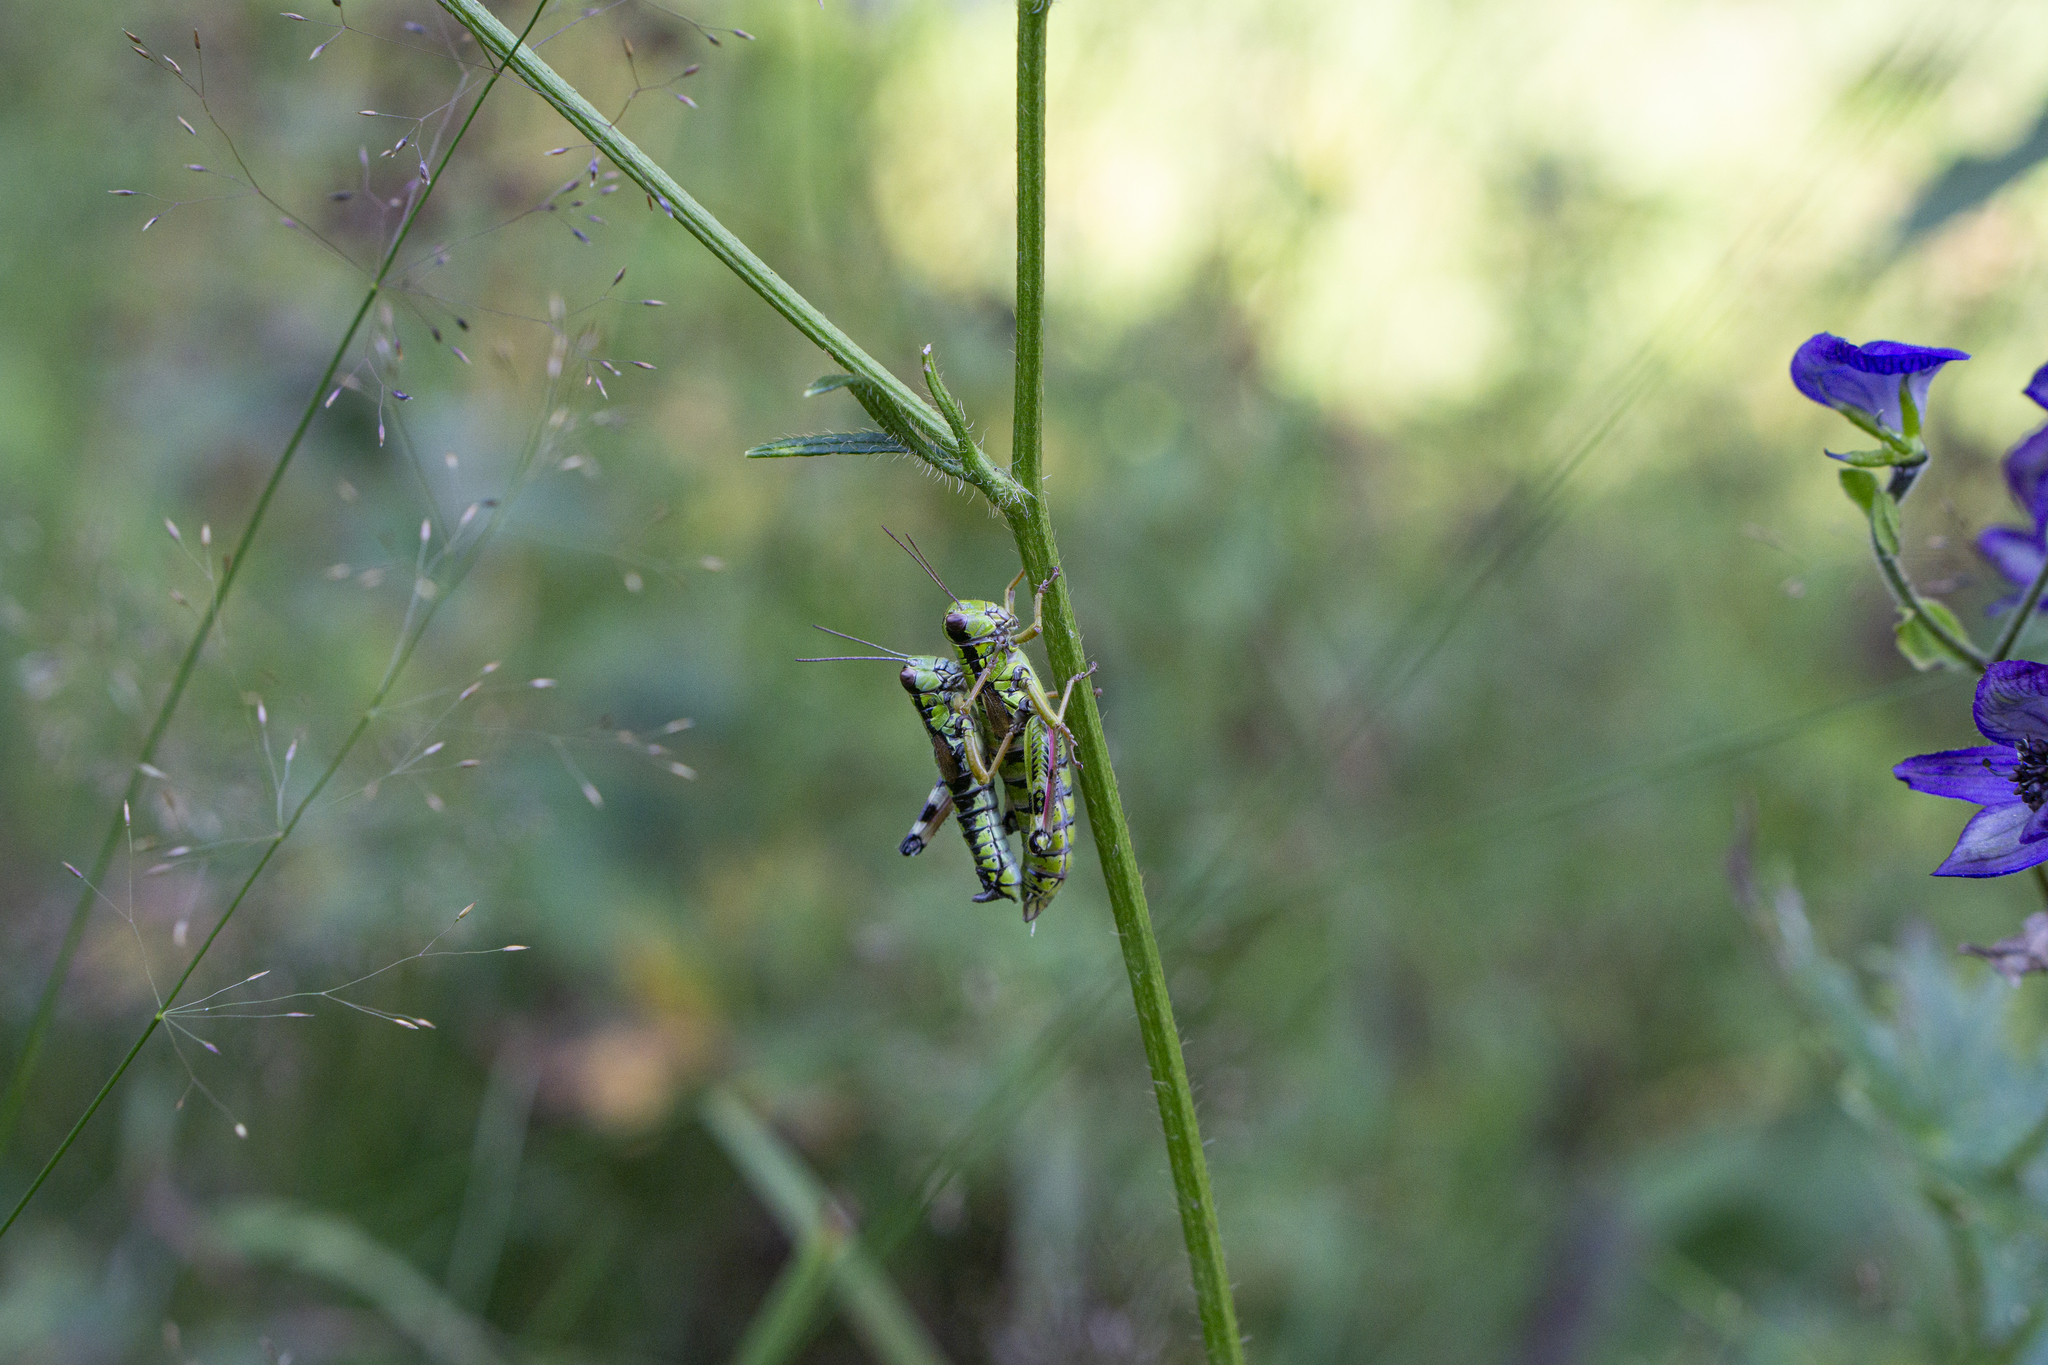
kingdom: Animalia
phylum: Arthropoda
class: Insecta
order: Orthoptera
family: Acrididae
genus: Capraiuscola
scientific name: Capraiuscola ebneri
